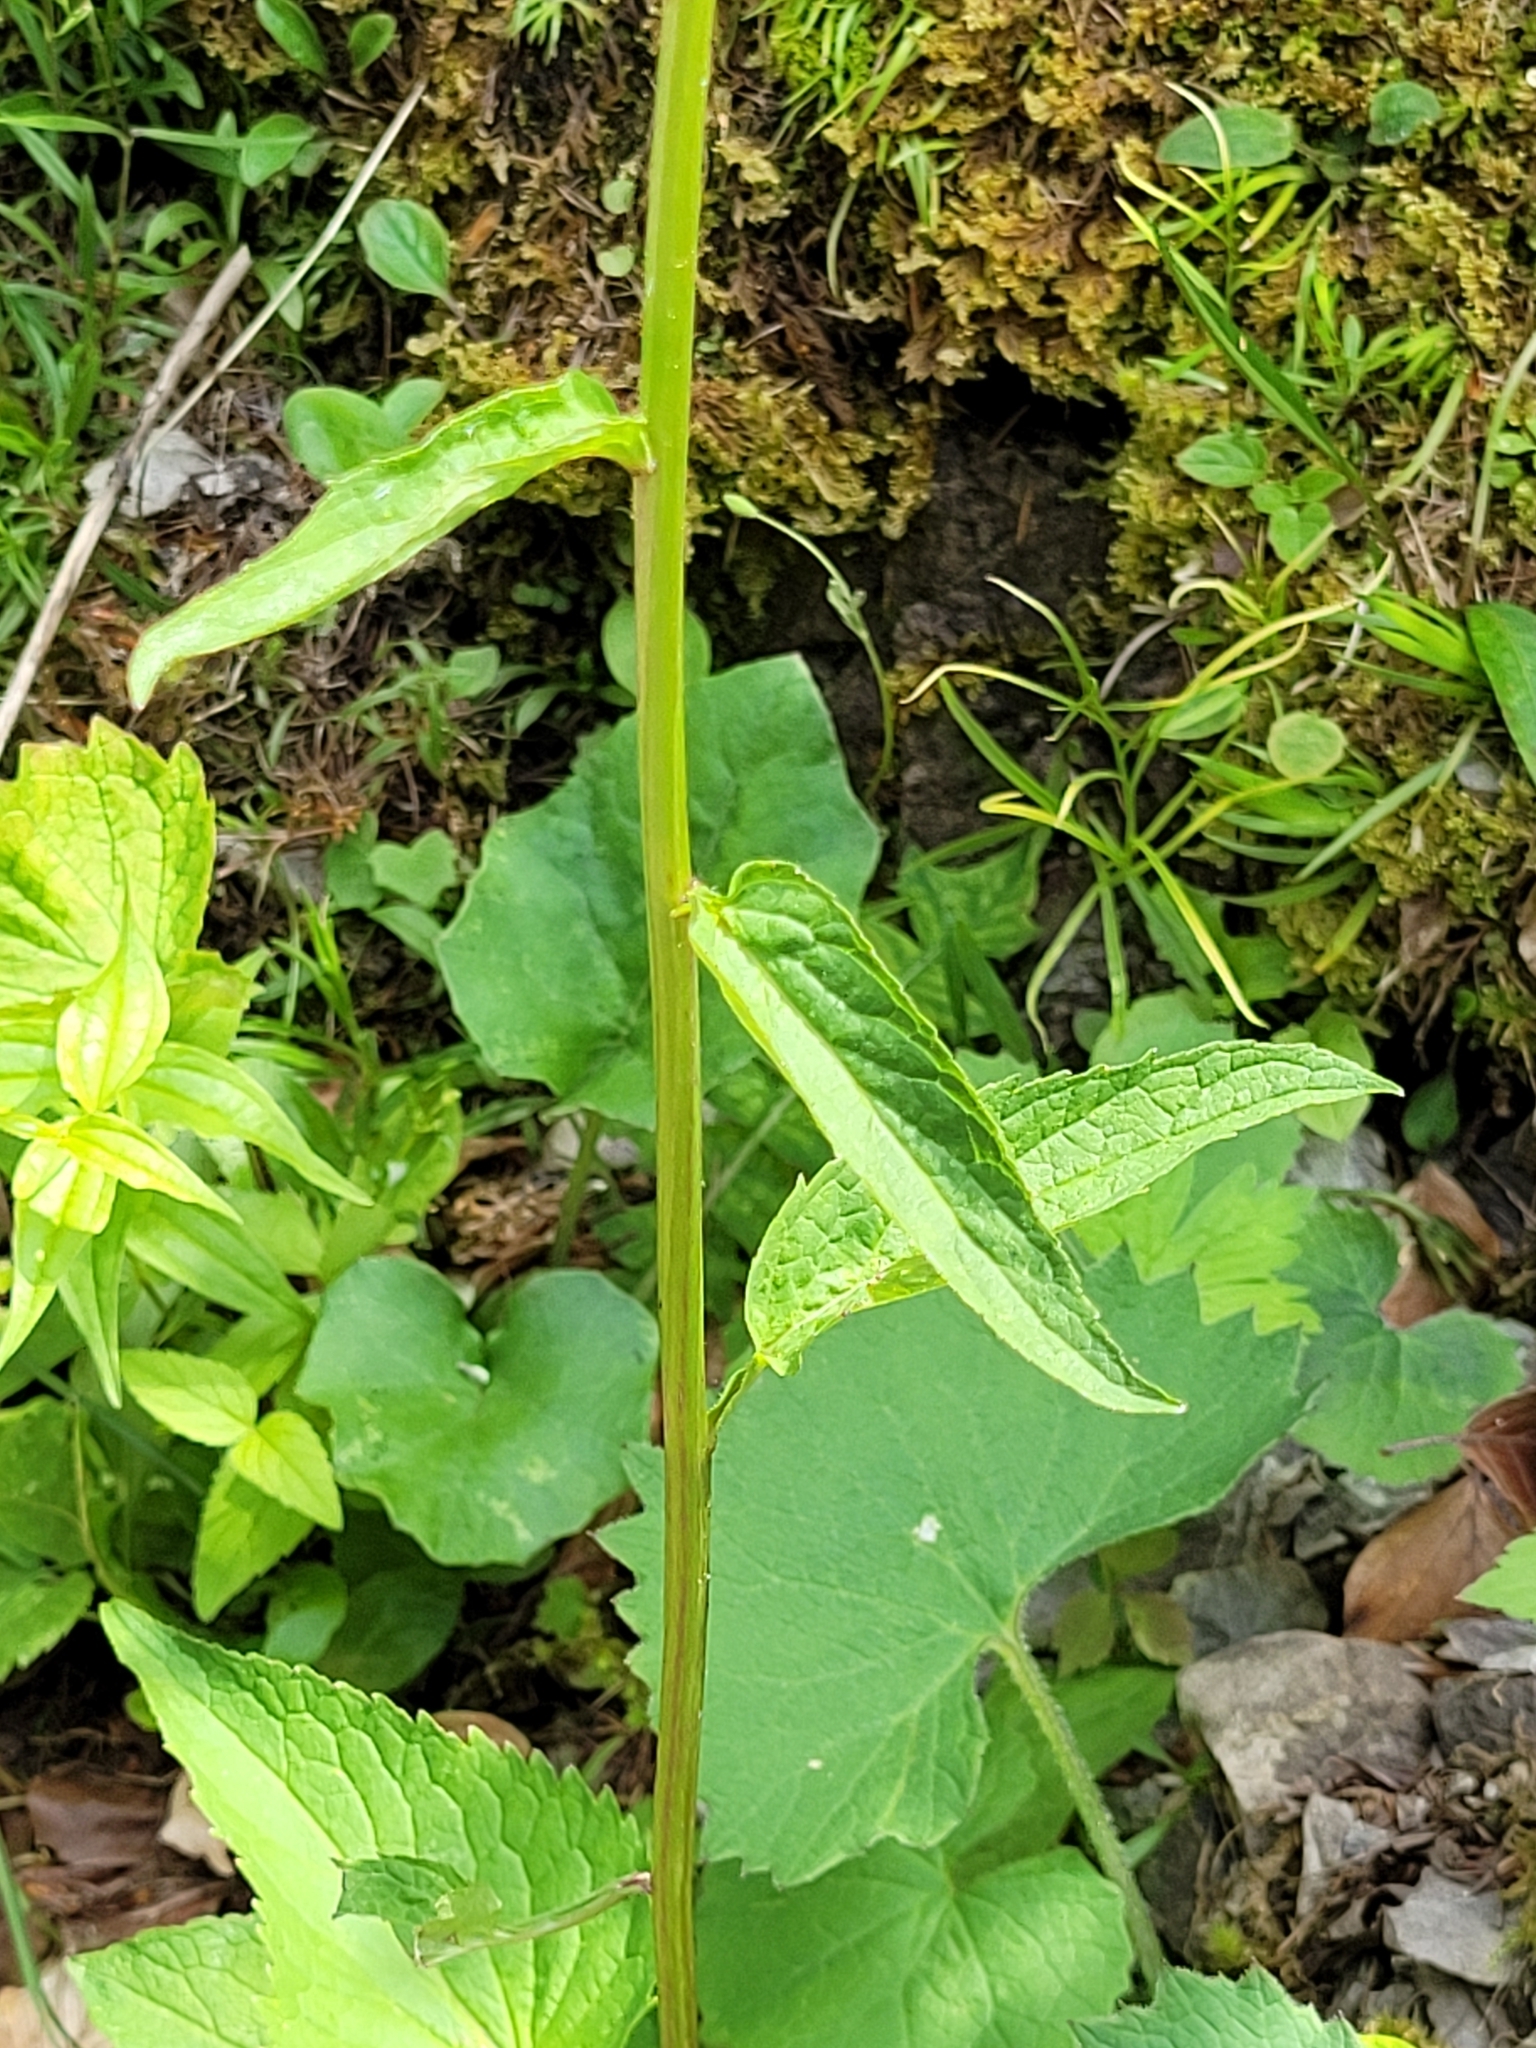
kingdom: Plantae
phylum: Tracheophyta
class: Magnoliopsida
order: Asterales
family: Campanulaceae
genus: Phyteuma
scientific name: Phyteuma ovatum
